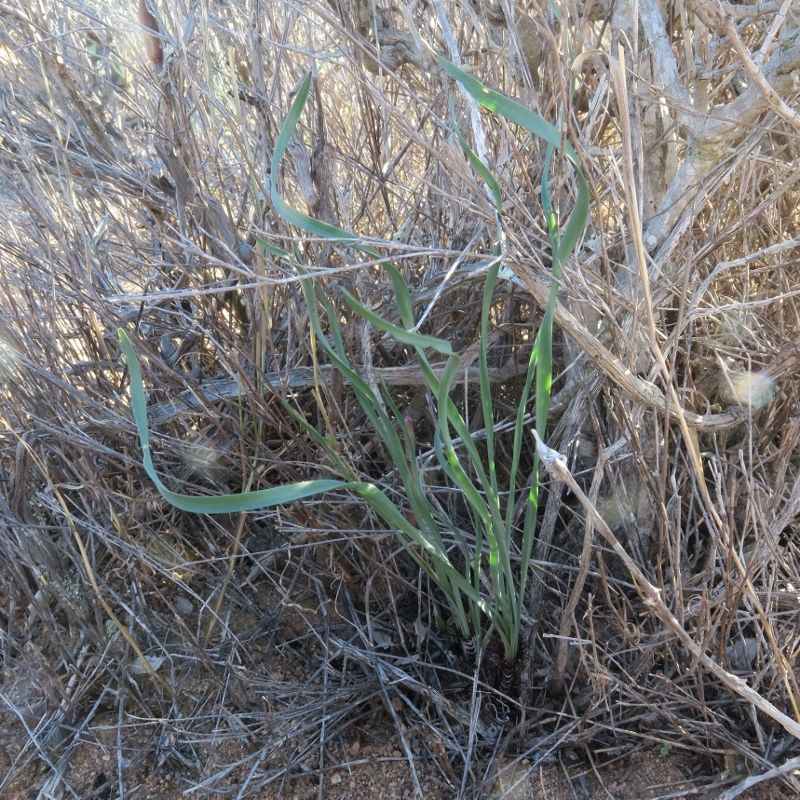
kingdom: Plantae
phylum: Tracheophyta
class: Liliopsida
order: Asparagales
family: Amaryllidaceae
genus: Gethyllis
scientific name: Gethyllis verticillata
